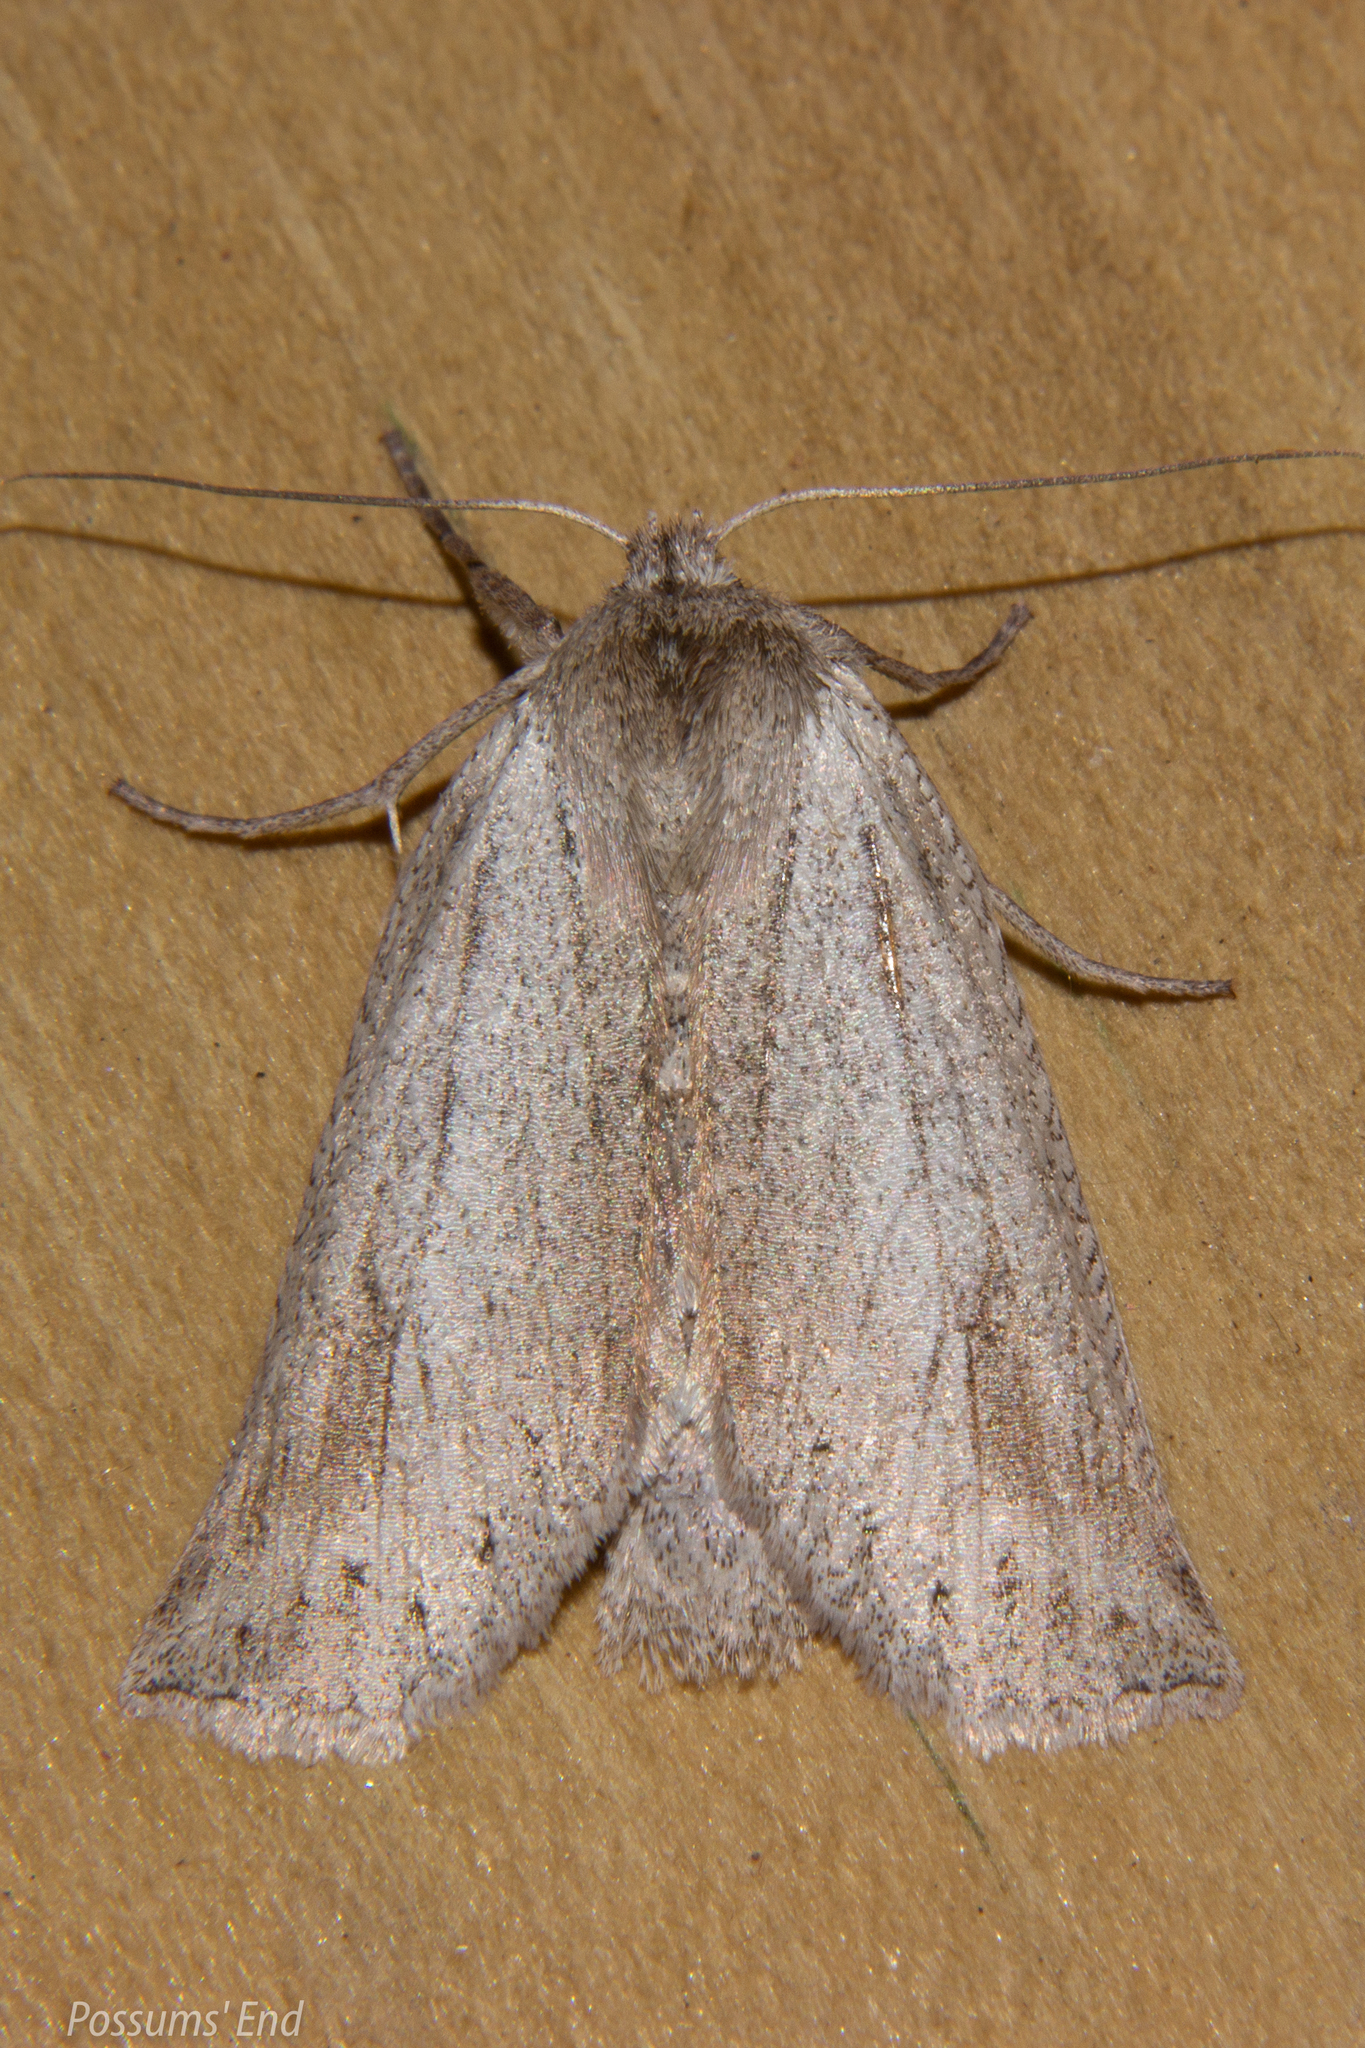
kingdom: Animalia
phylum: Arthropoda
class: Insecta
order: Lepidoptera
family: Geometridae
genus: Declana
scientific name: Declana leptomera
